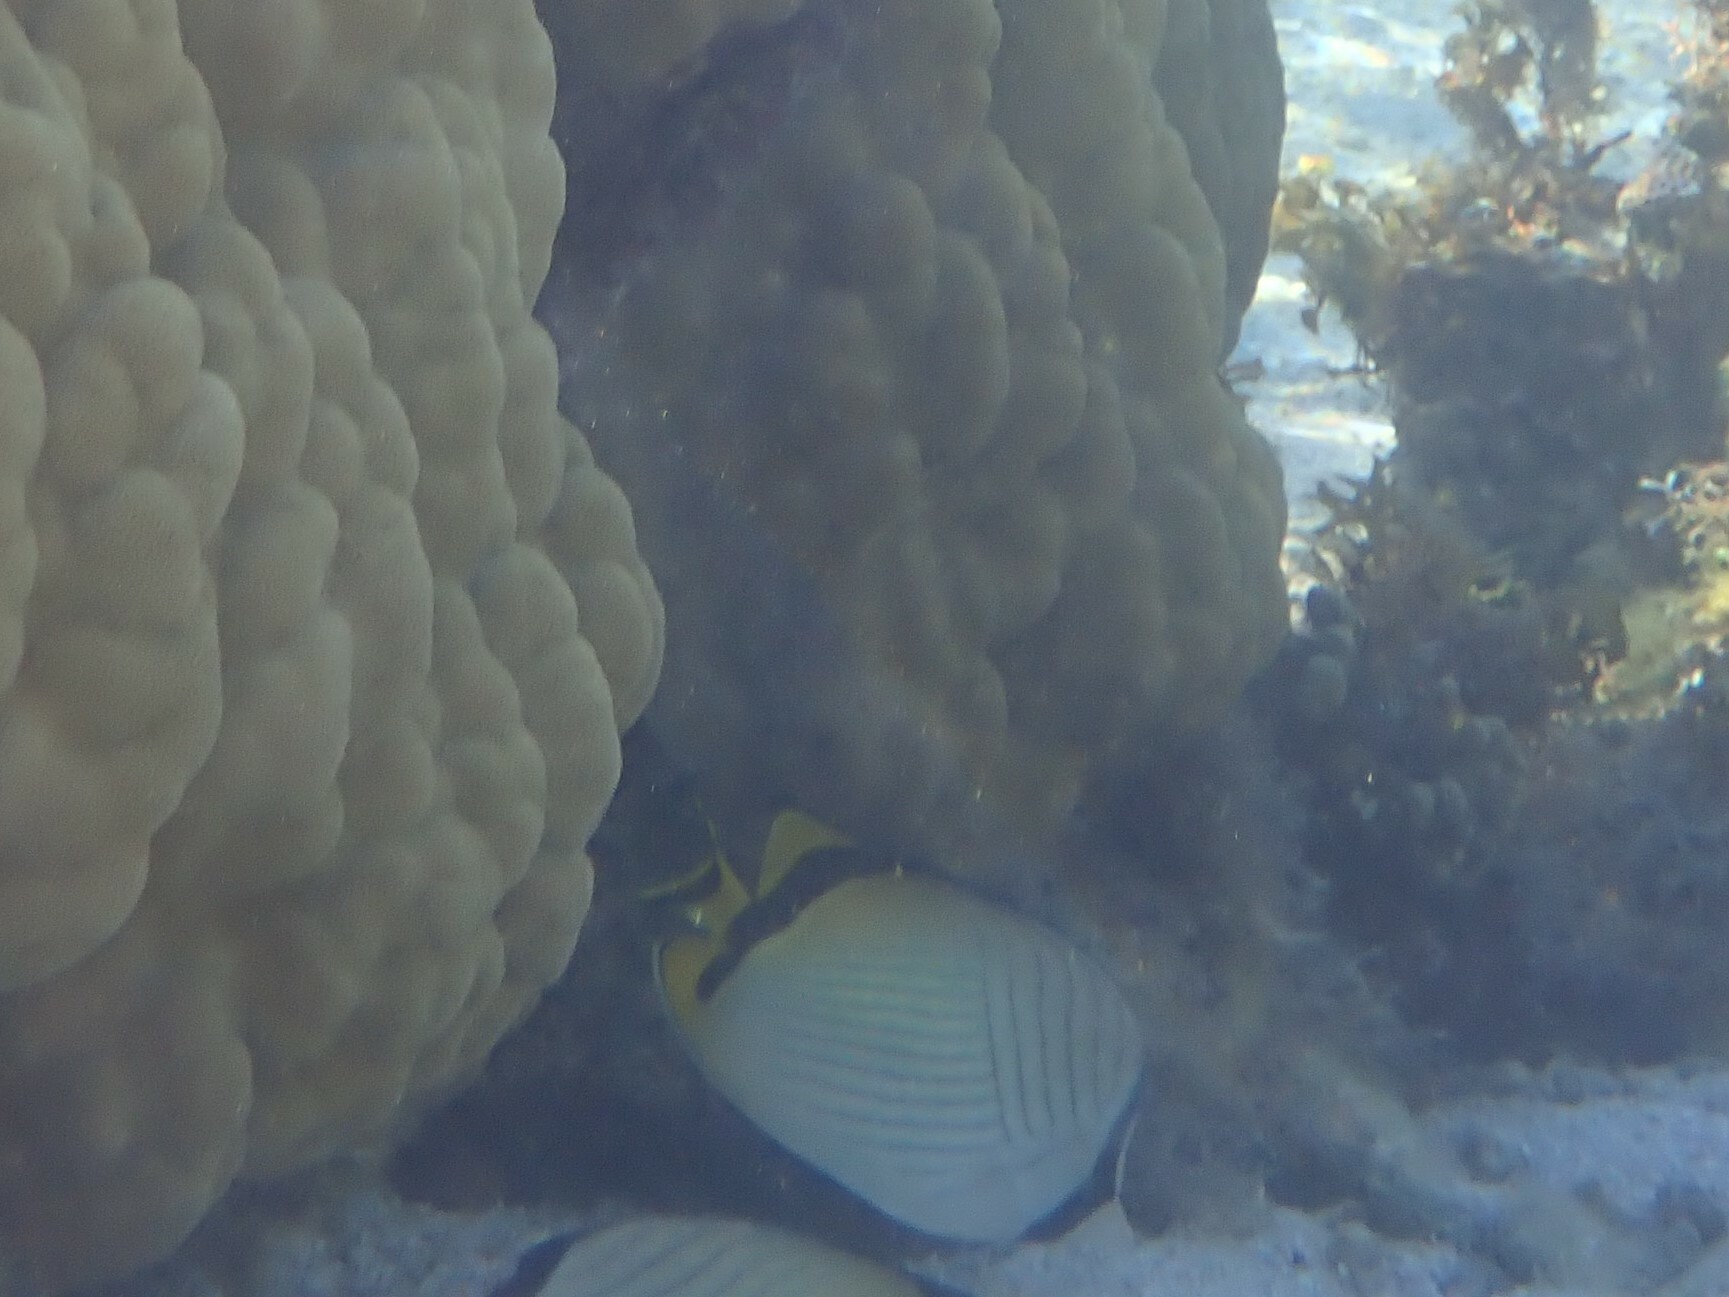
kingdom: Animalia
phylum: Chordata
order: Perciformes
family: Chaetodontidae
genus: Chaetodon
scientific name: Chaetodon vagabundus
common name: Vagabond butterflyfish
